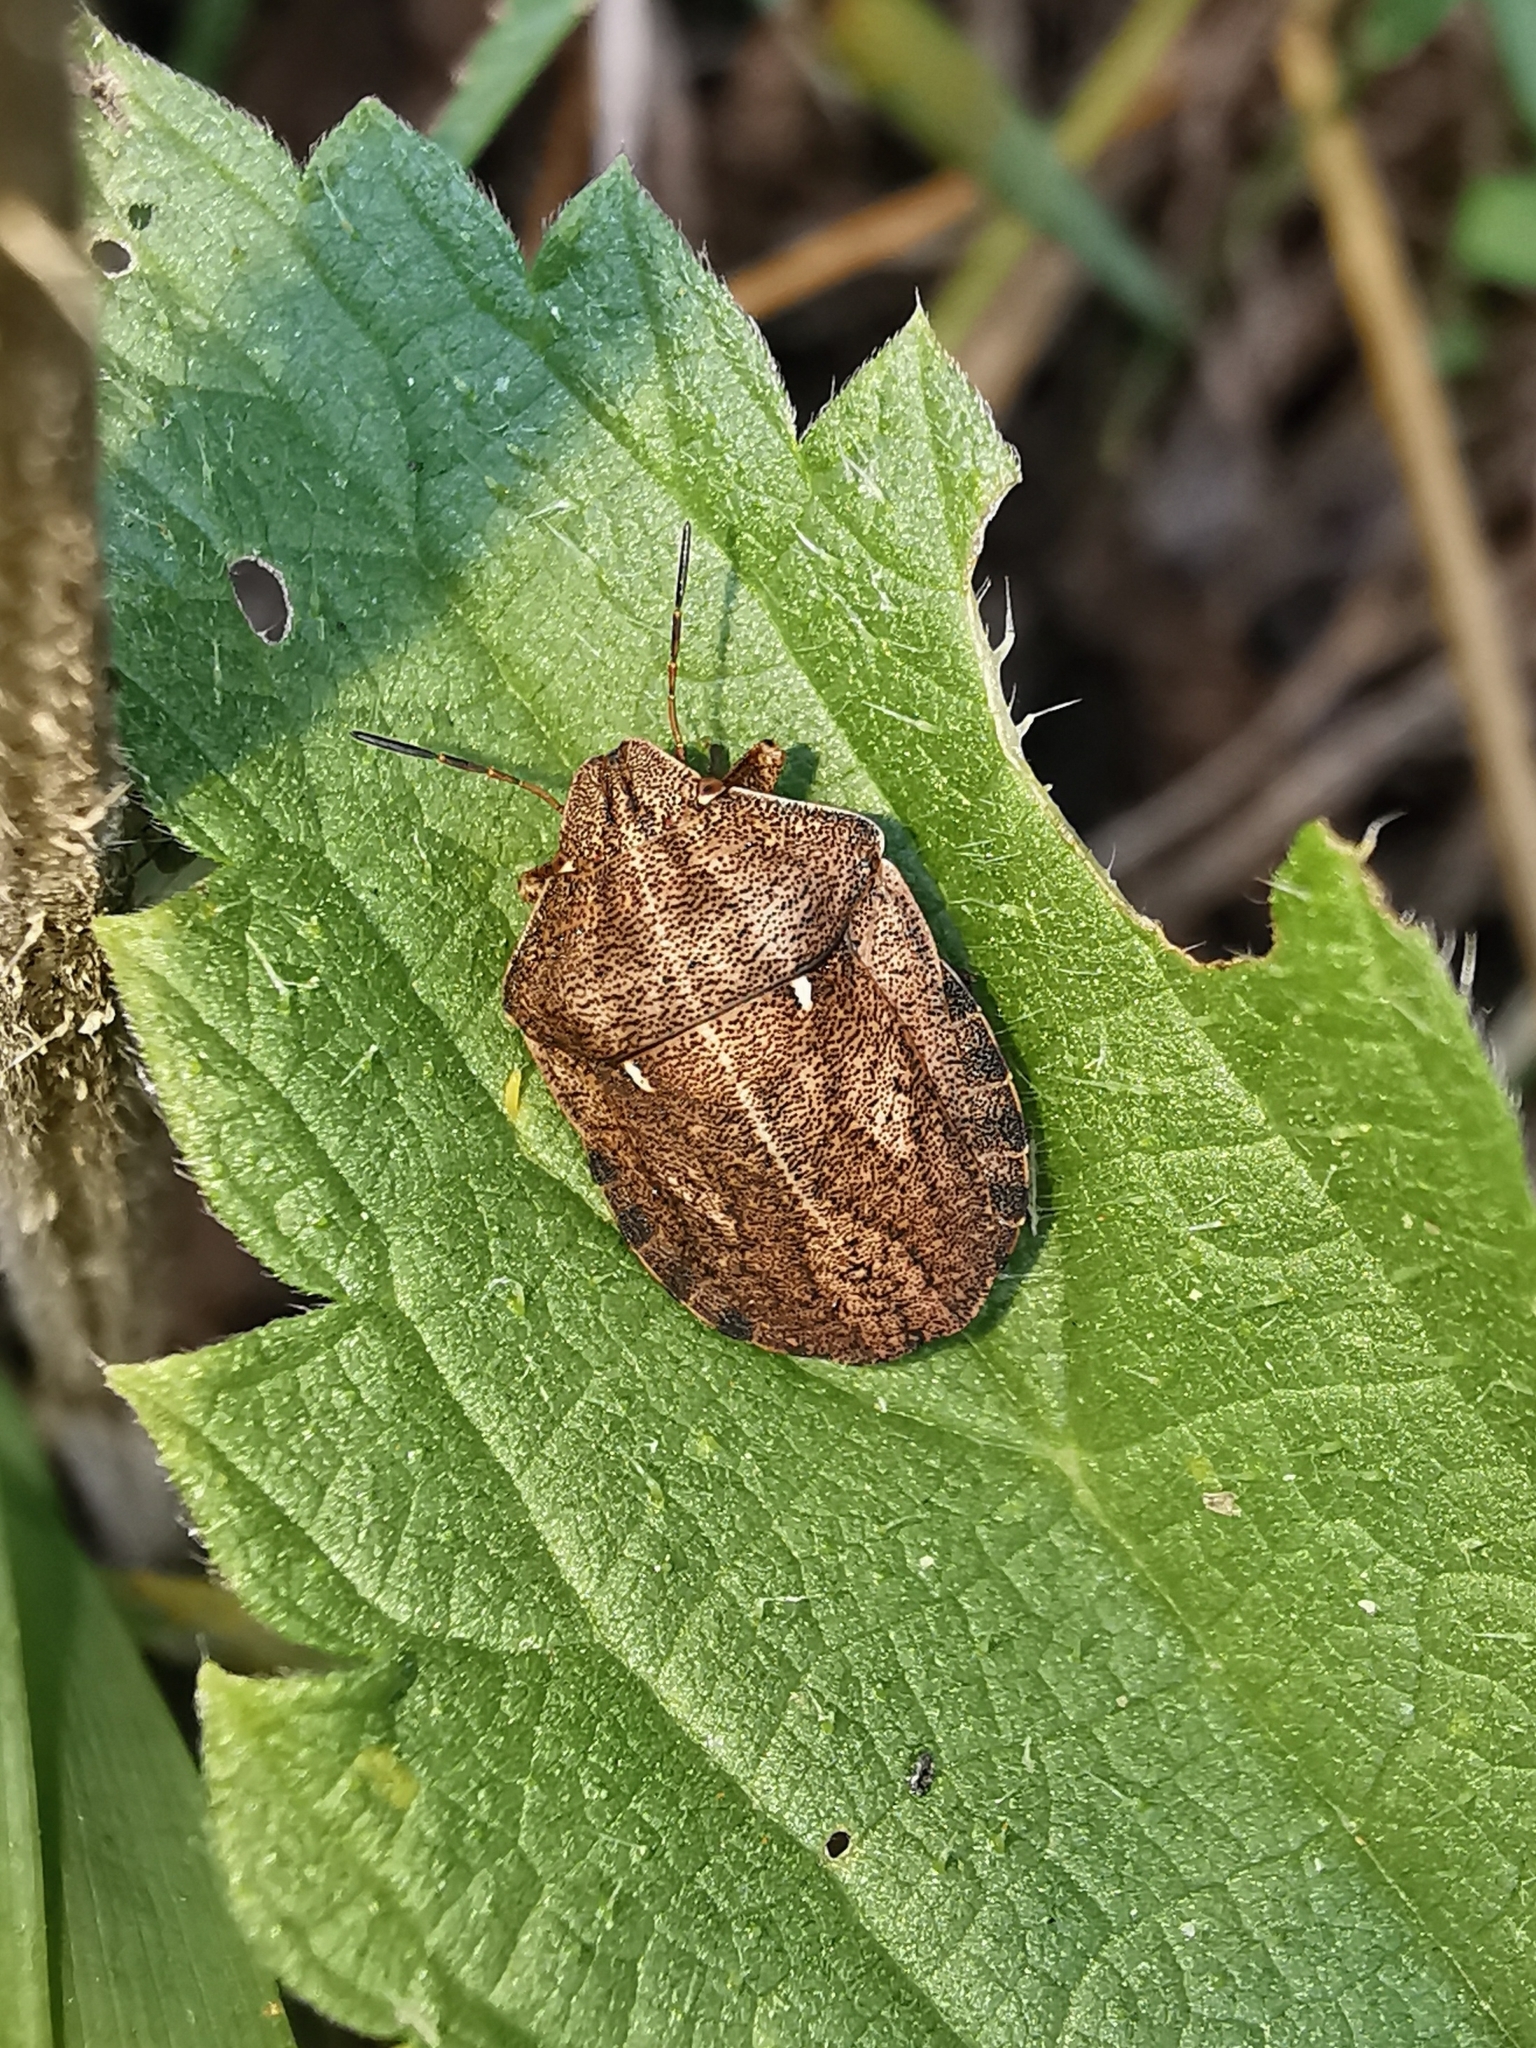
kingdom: Animalia
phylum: Arthropoda
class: Insecta
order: Hemiptera
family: Scutelleridae
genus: Eurygaster
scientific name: Eurygaster testudinaria
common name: Tortoise bug
